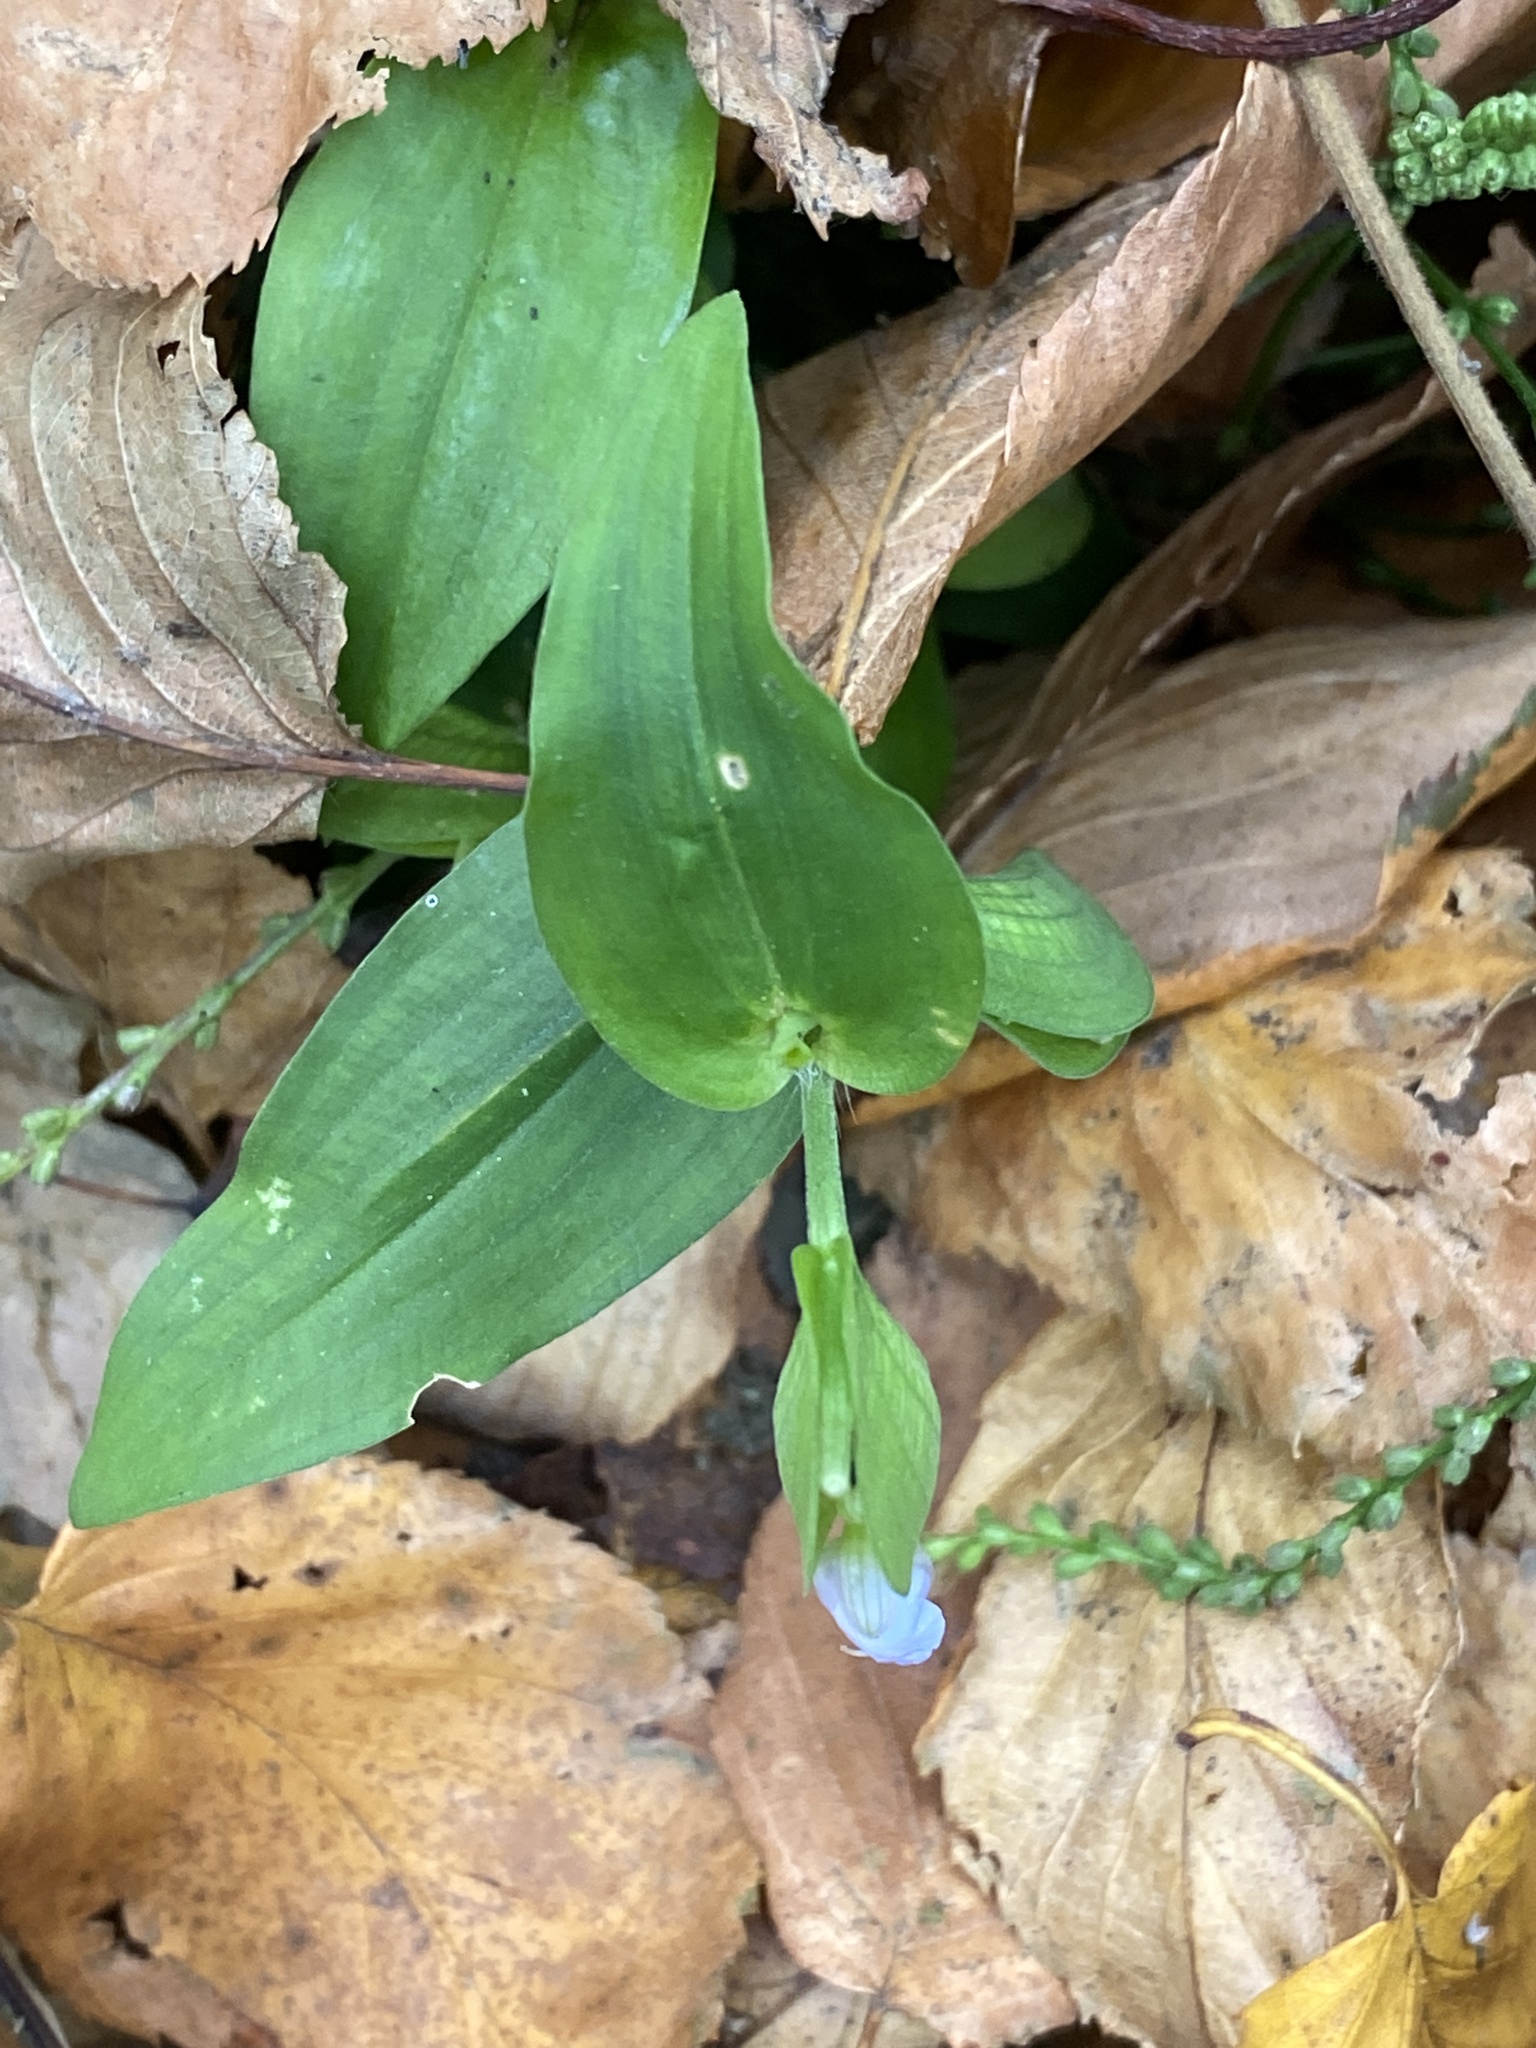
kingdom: Plantae
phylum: Tracheophyta
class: Liliopsida
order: Commelinales
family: Commelinaceae
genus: Commelina
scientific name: Commelina communis
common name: Asiatic dayflower
